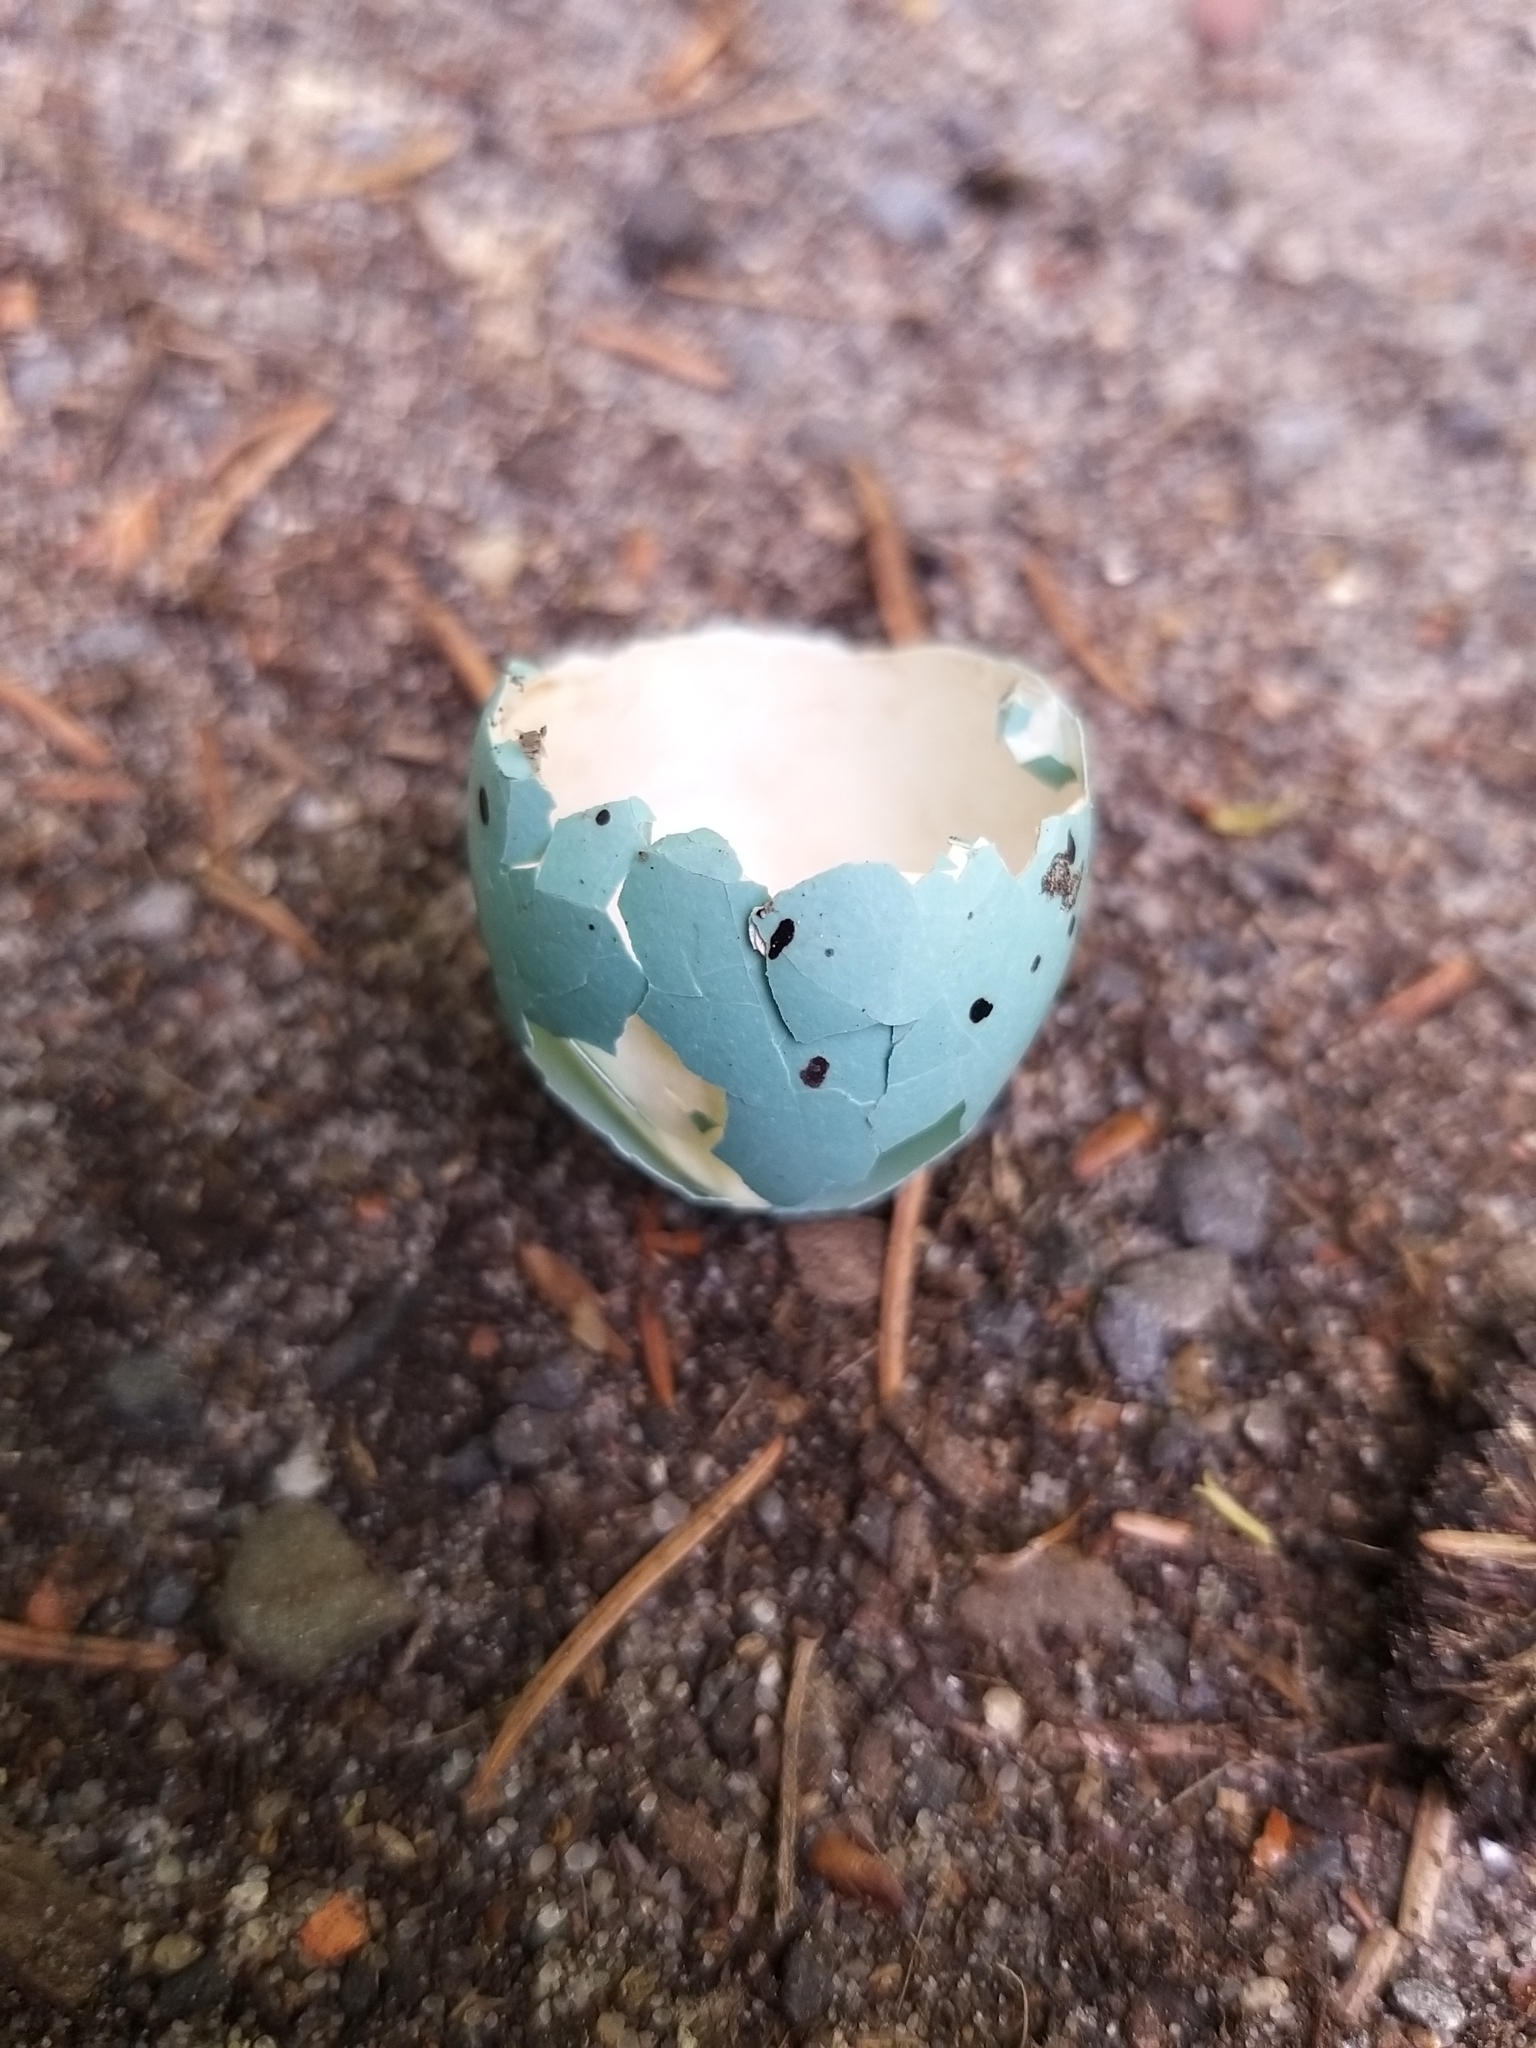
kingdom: Animalia
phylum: Chordata
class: Aves
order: Passeriformes
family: Turdidae
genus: Turdus
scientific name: Turdus philomelos
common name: Song thrush
